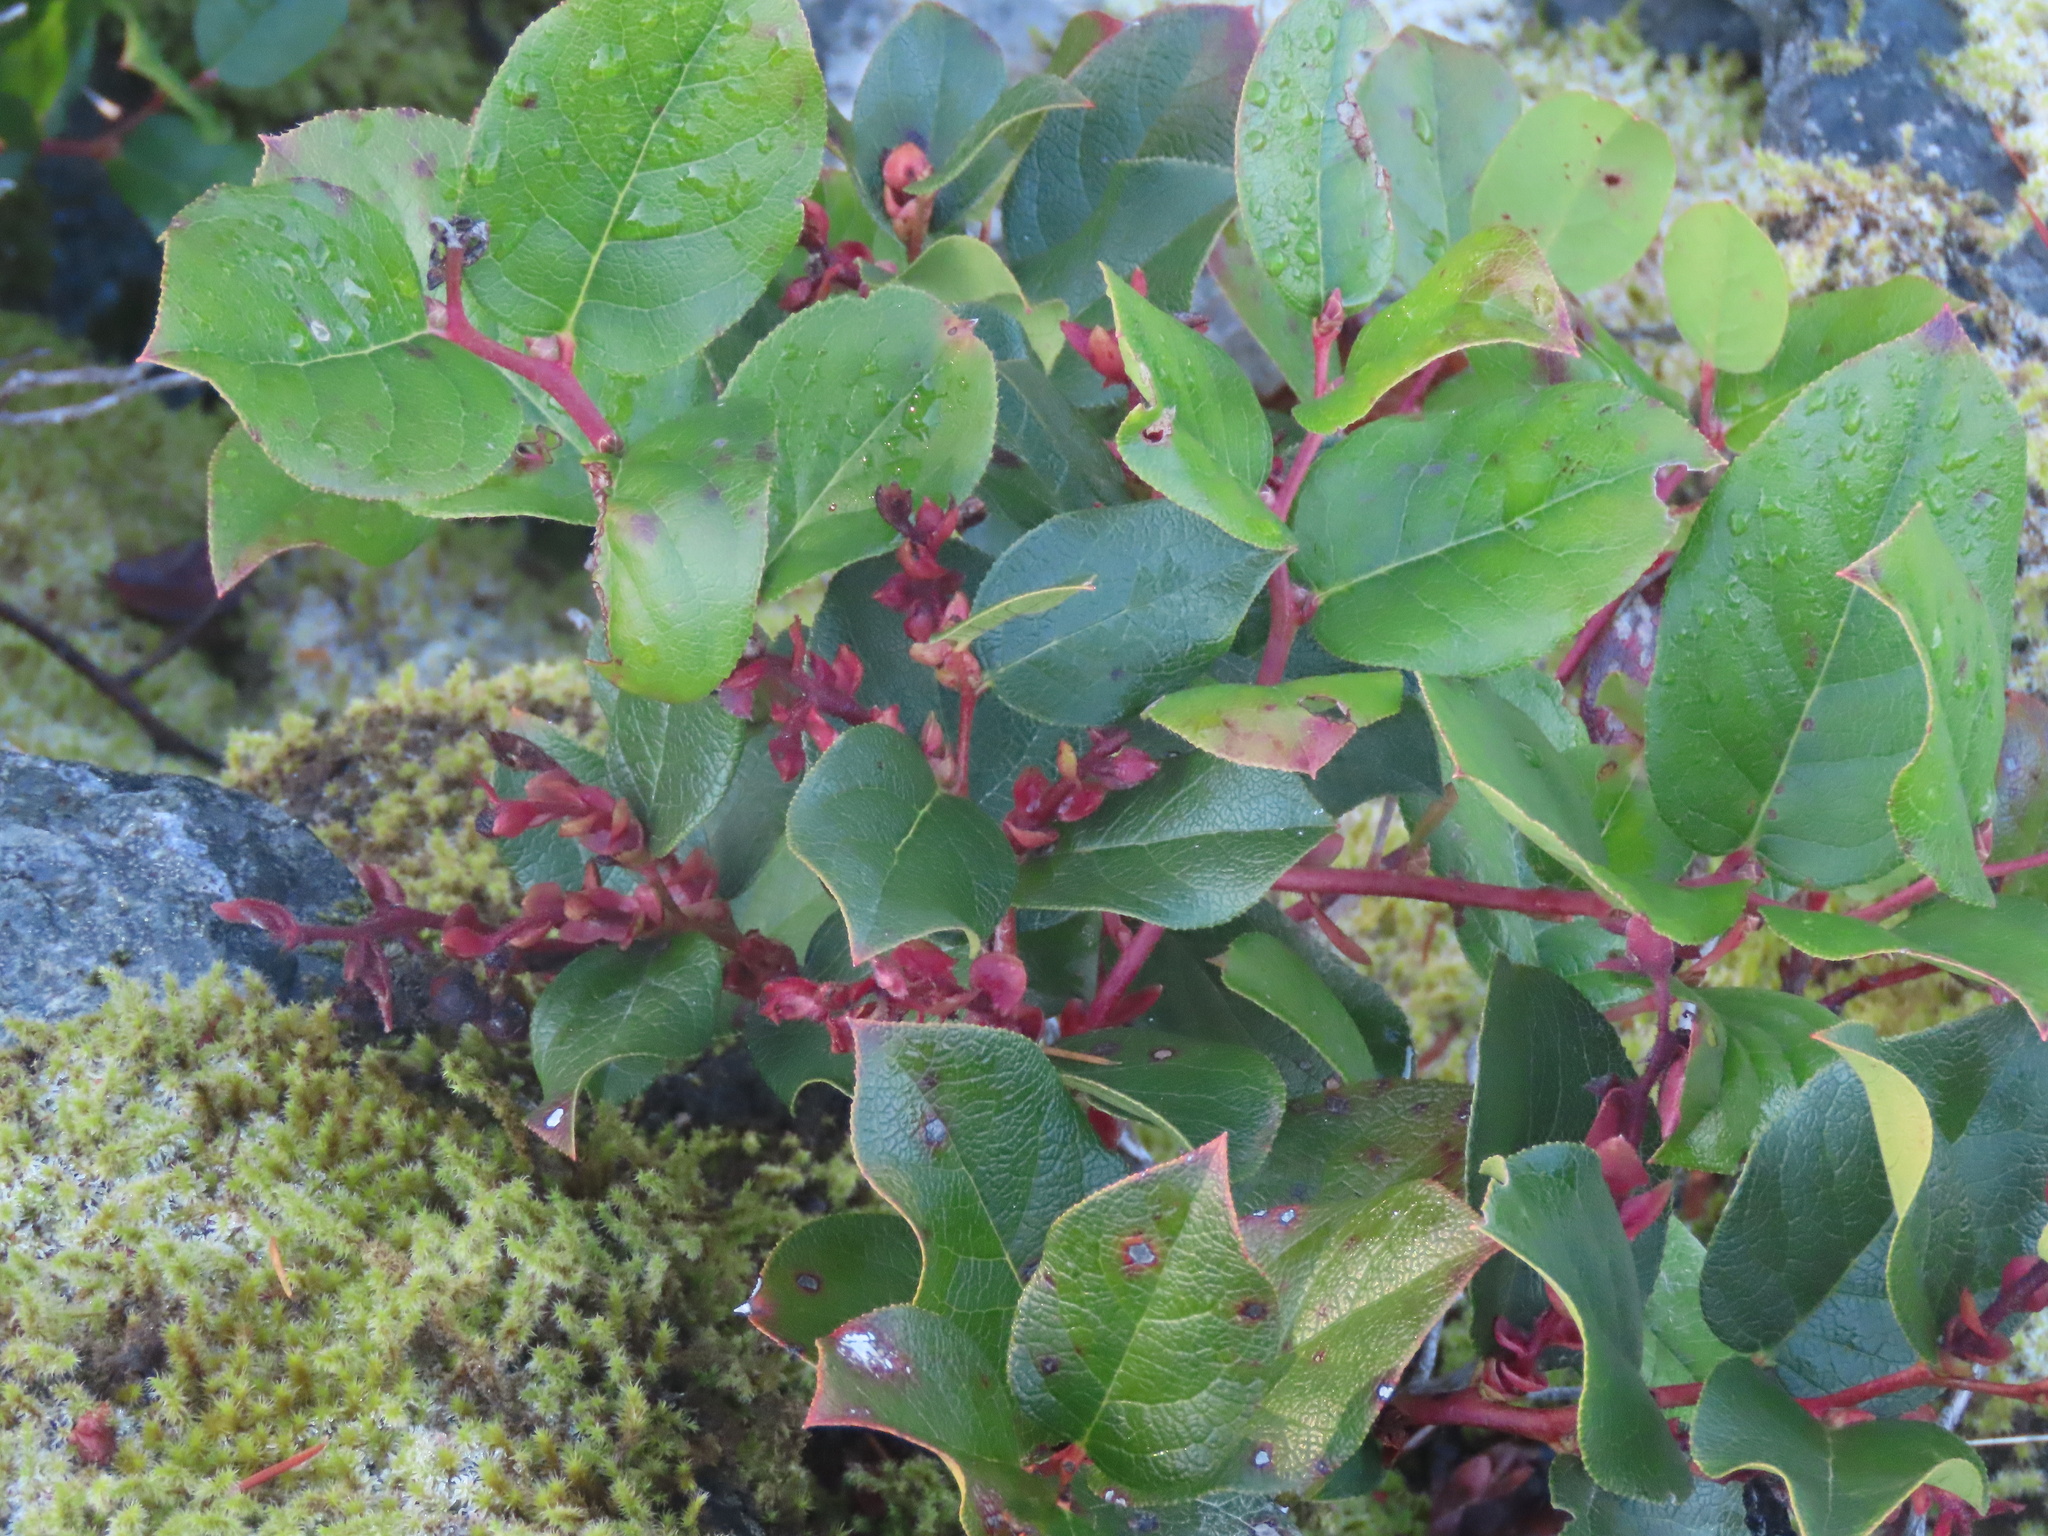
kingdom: Plantae
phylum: Tracheophyta
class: Magnoliopsida
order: Ericales
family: Ericaceae
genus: Gaultheria
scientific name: Gaultheria shallon
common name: Shallon
